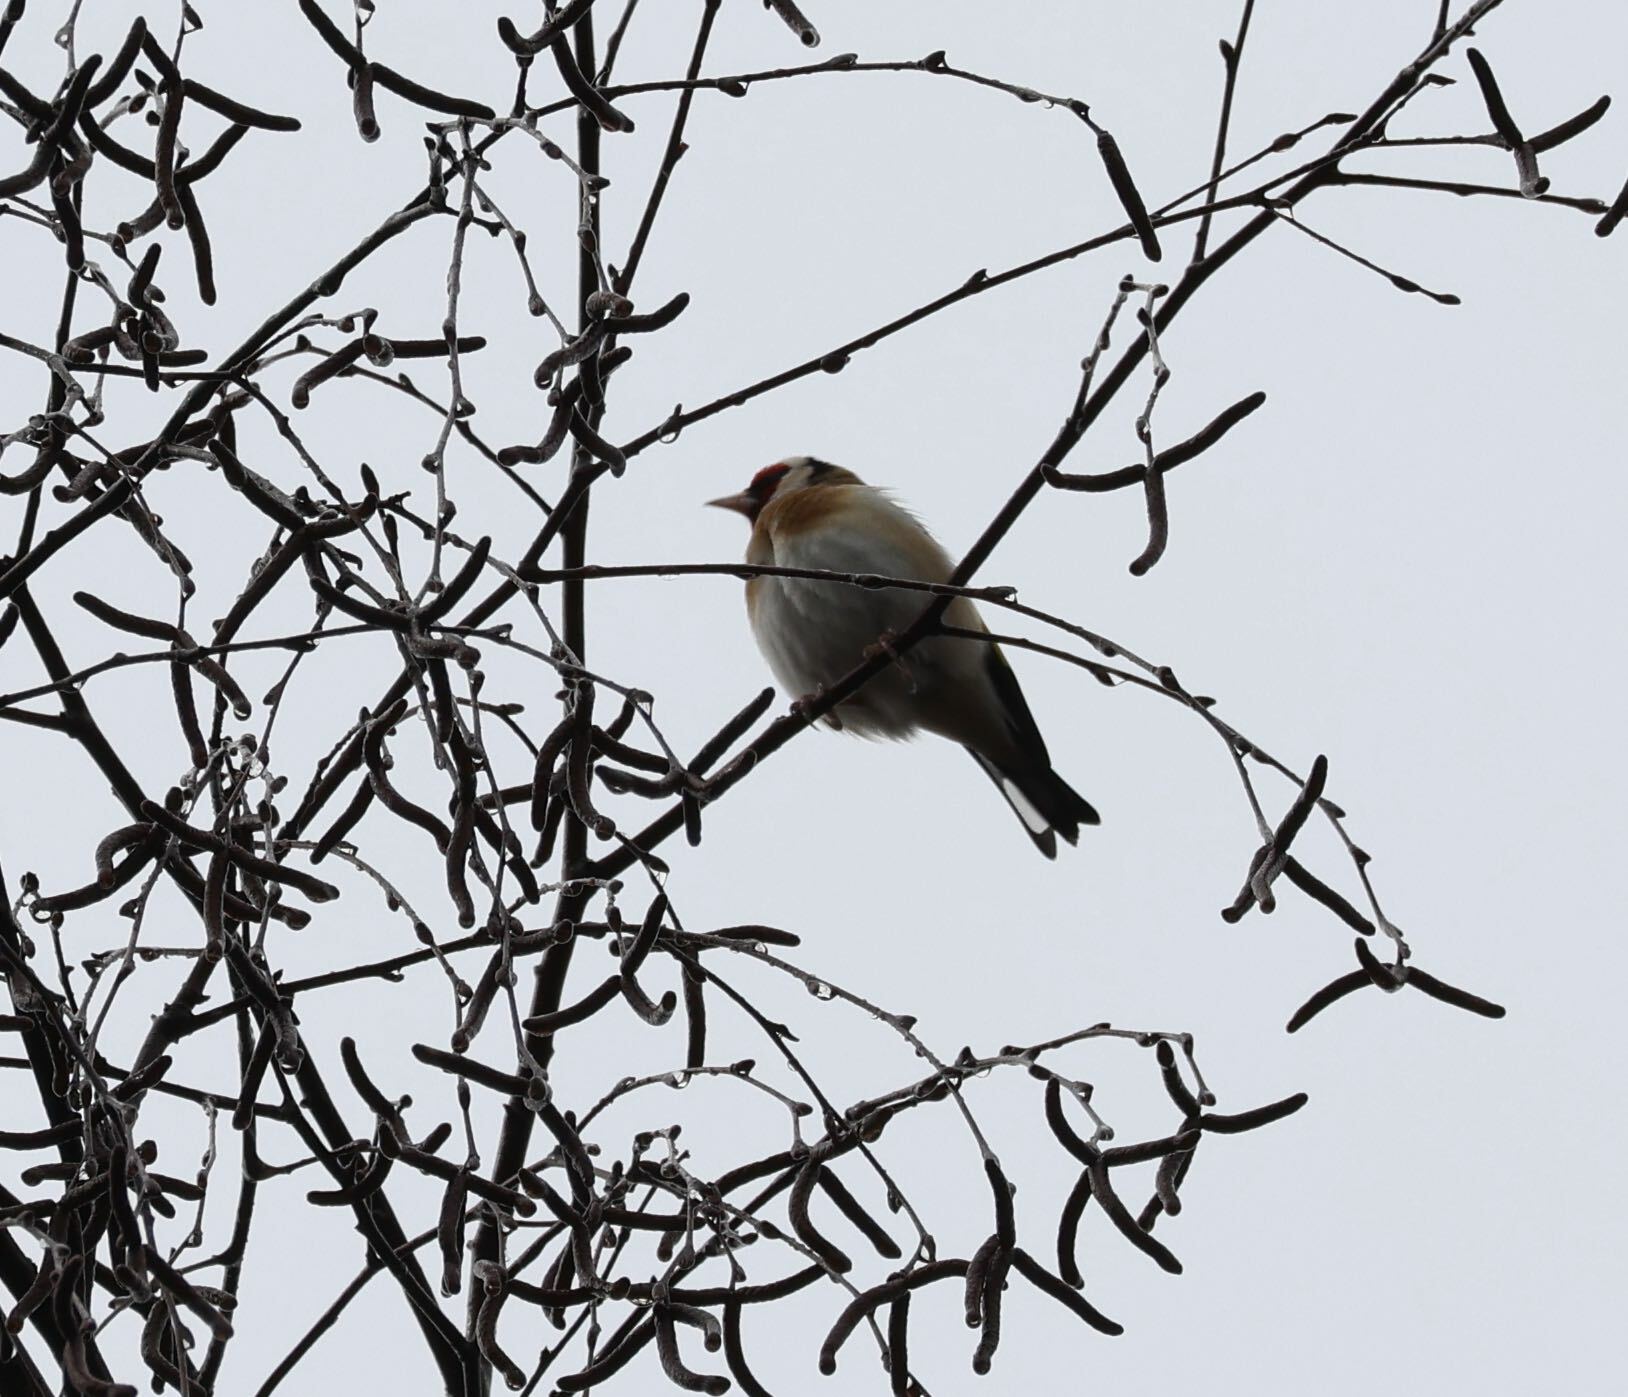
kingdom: Animalia
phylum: Chordata
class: Aves
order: Passeriformes
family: Fringillidae
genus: Carduelis
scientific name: Carduelis carduelis
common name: European goldfinch
